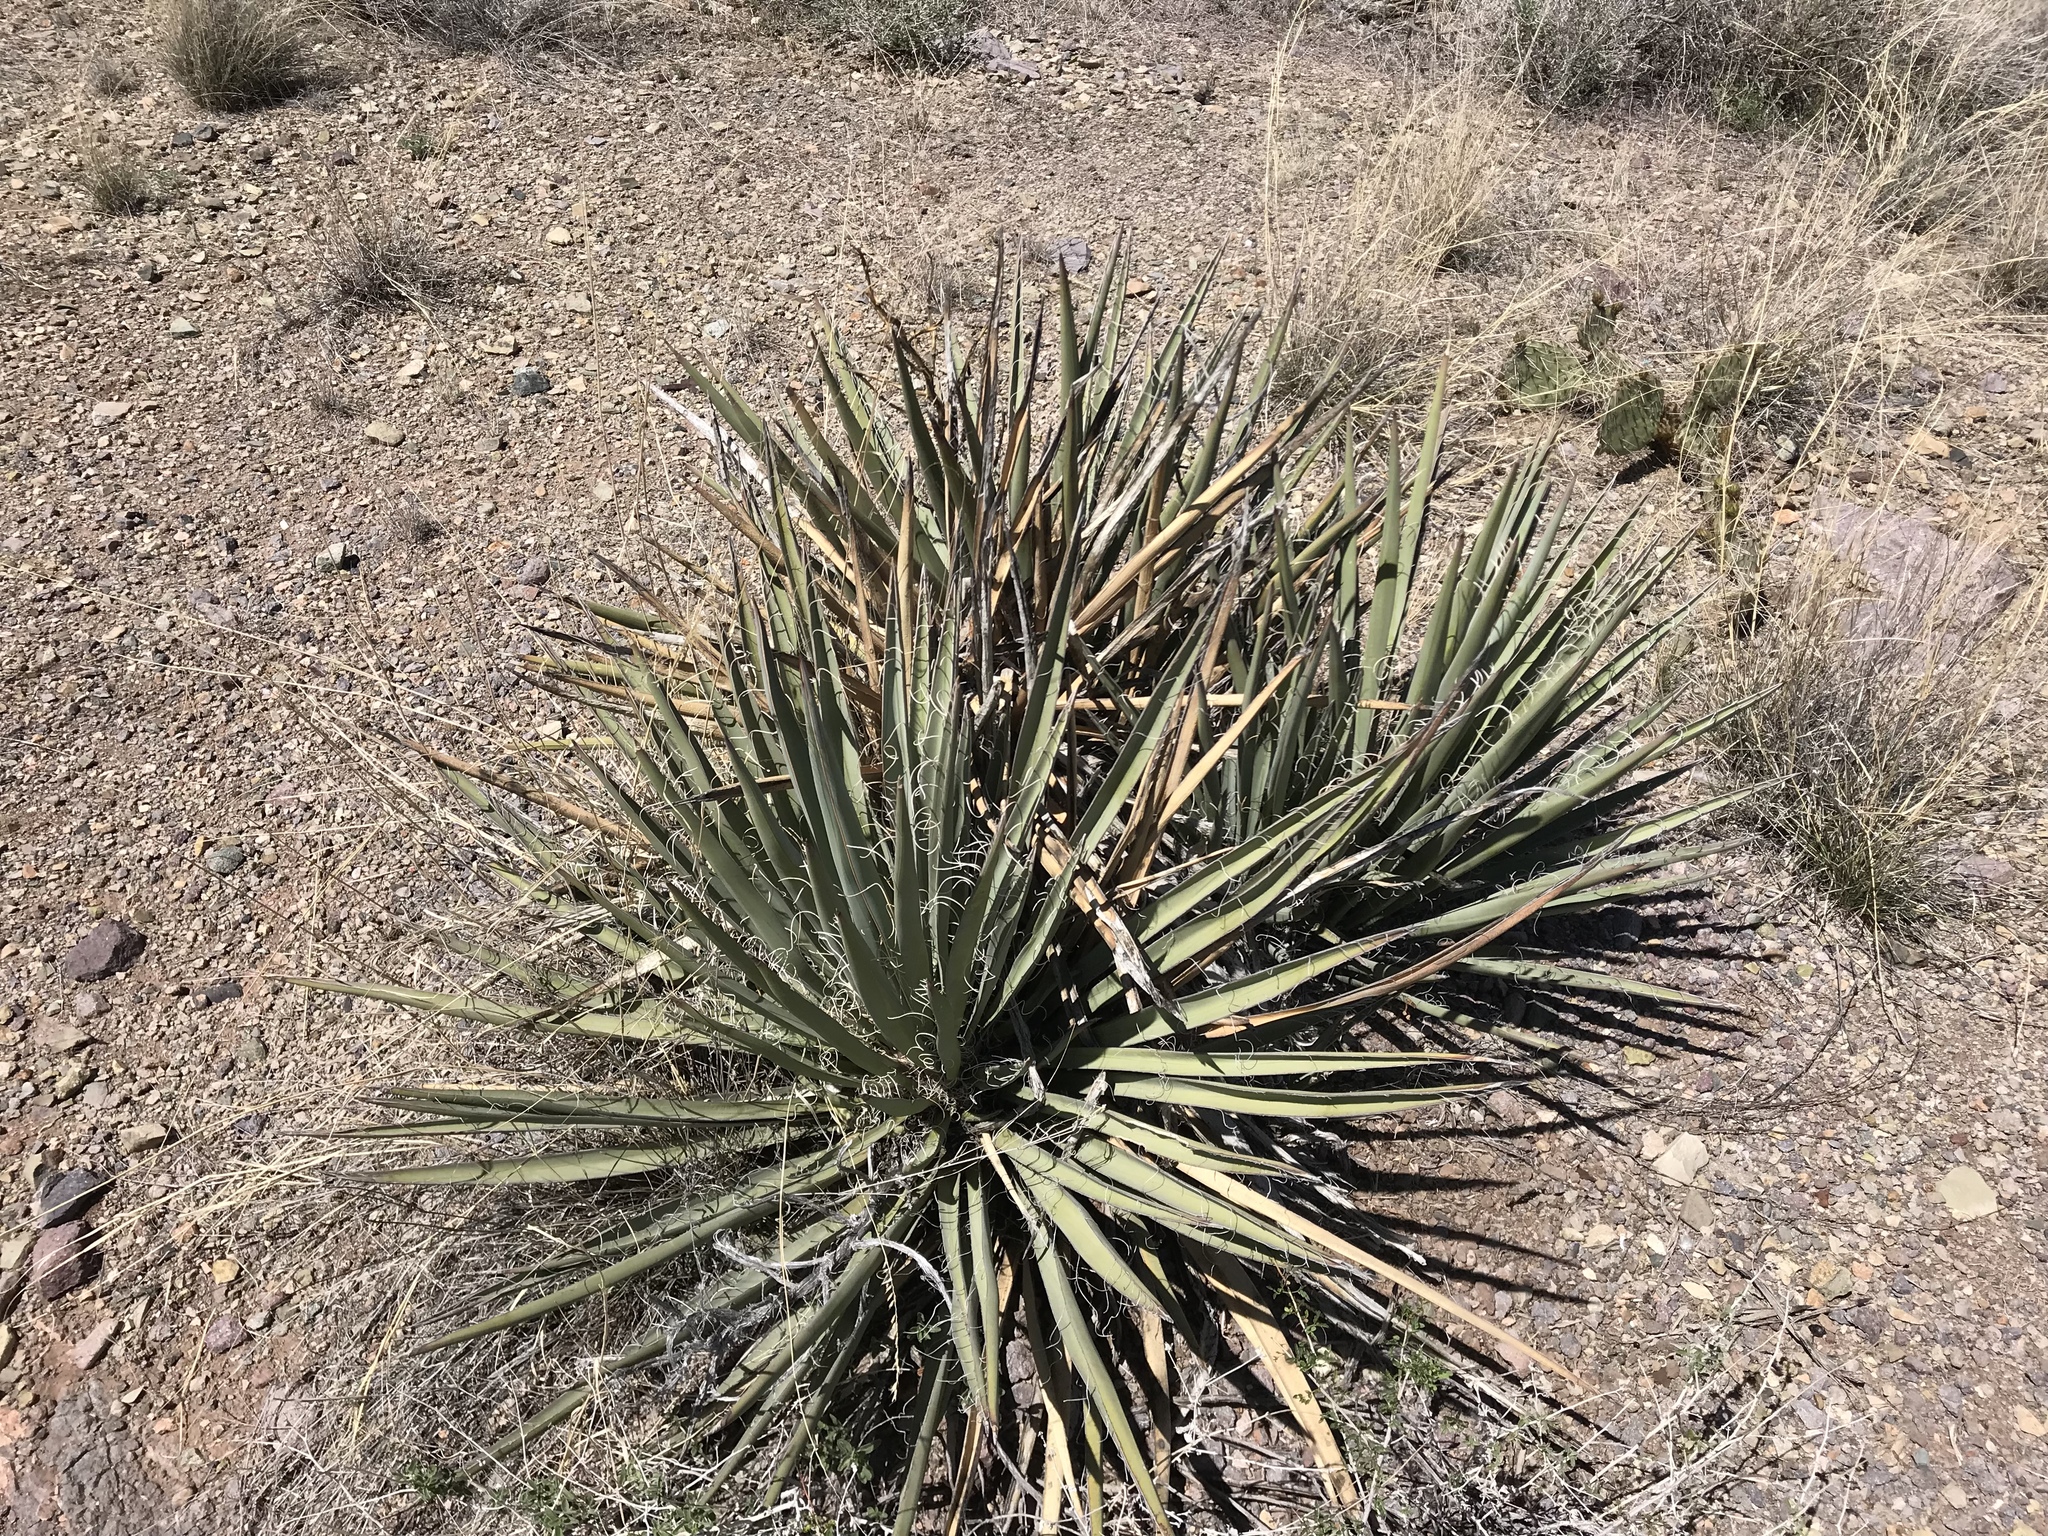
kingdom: Plantae
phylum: Tracheophyta
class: Liliopsida
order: Asparagales
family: Asparagaceae
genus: Yucca
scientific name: Yucca baccata
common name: Banana yucca
